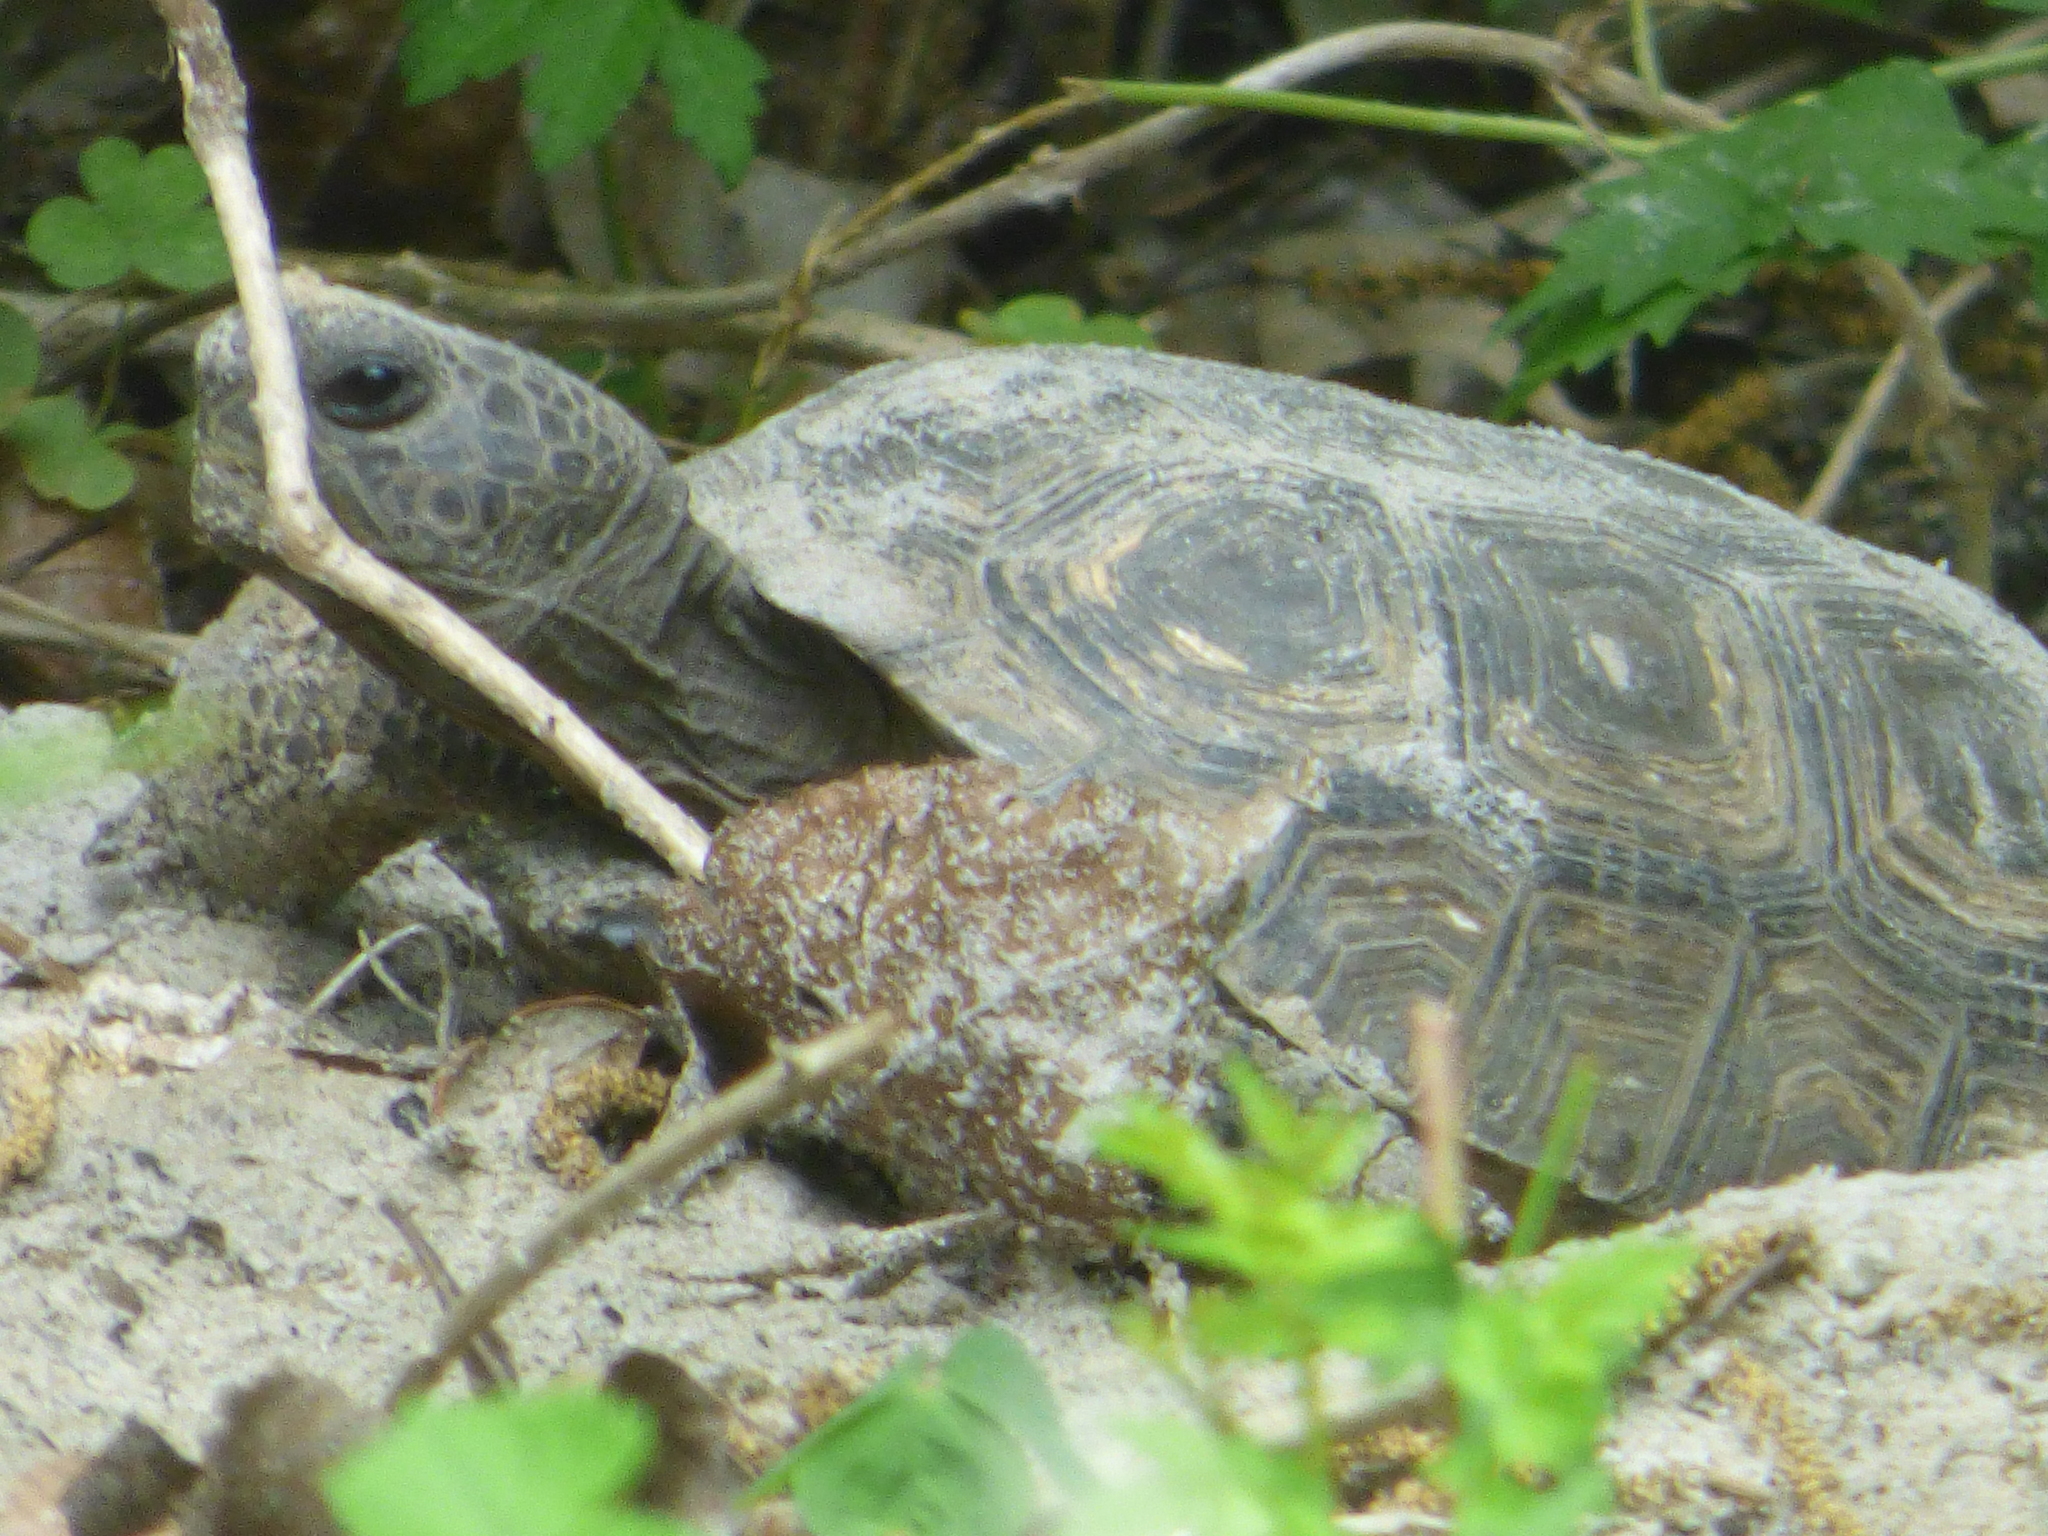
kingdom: Animalia
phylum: Chordata
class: Testudines
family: Testudinidae
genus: Gopherus
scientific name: Gopherus polyphemus
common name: Florida gopher tortoise
